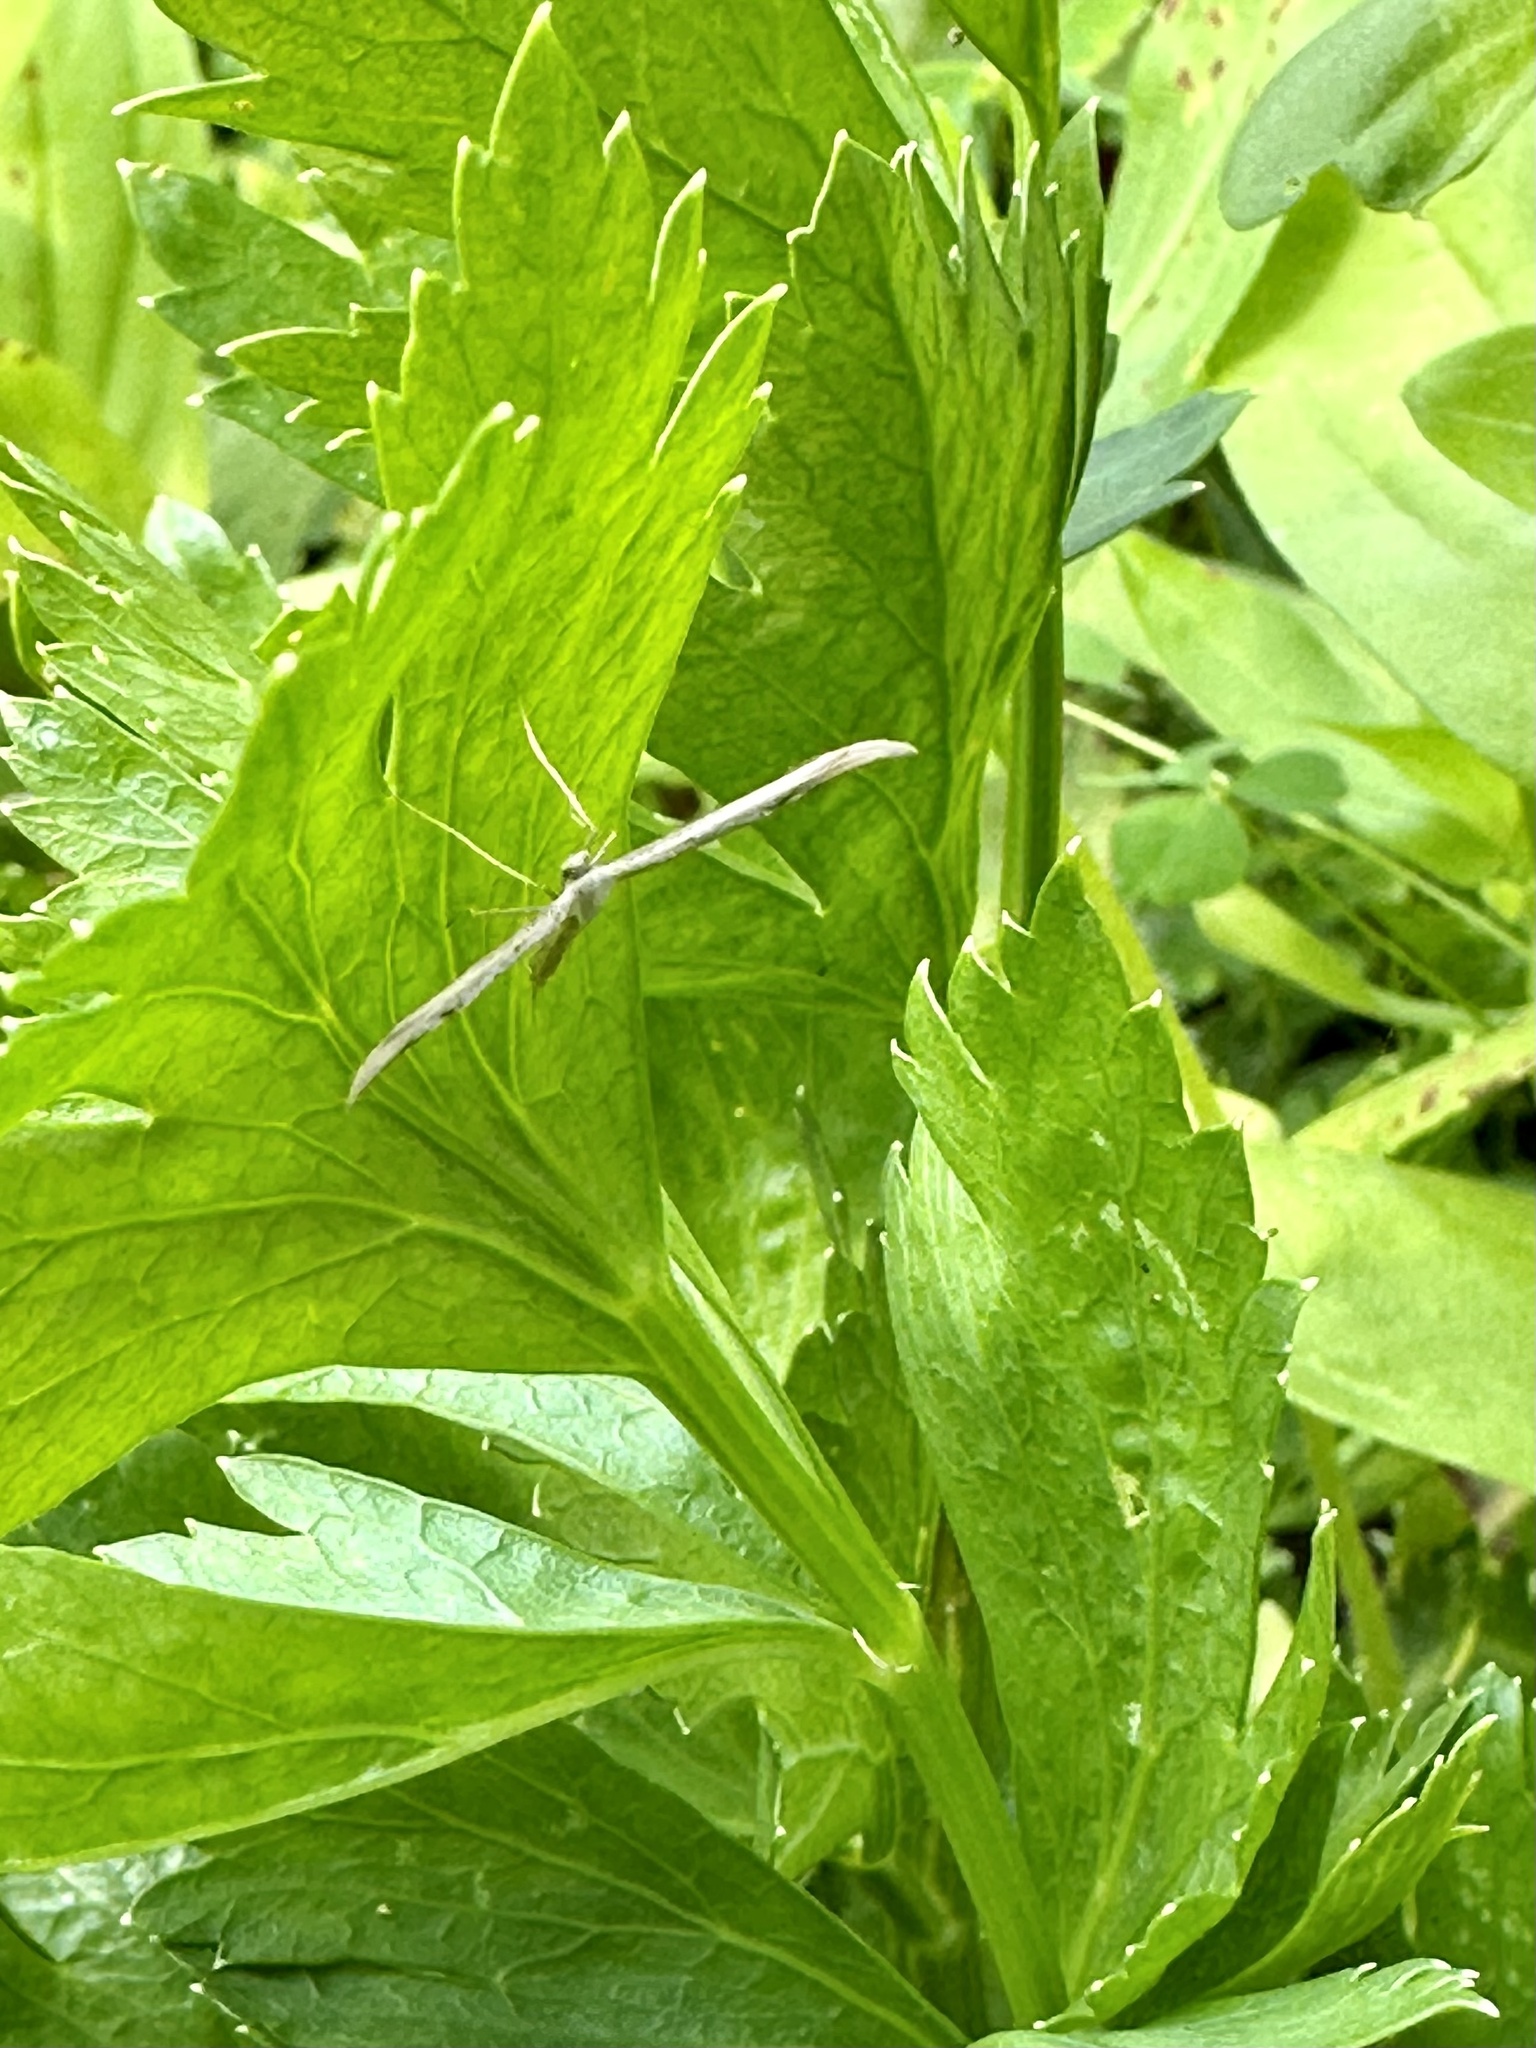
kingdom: Animalia
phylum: Arthropoda
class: Insecta
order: Lepidoptera
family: Pterophoridae
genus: Emmelina
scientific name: Emmelina monodactyla
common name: Common plume
